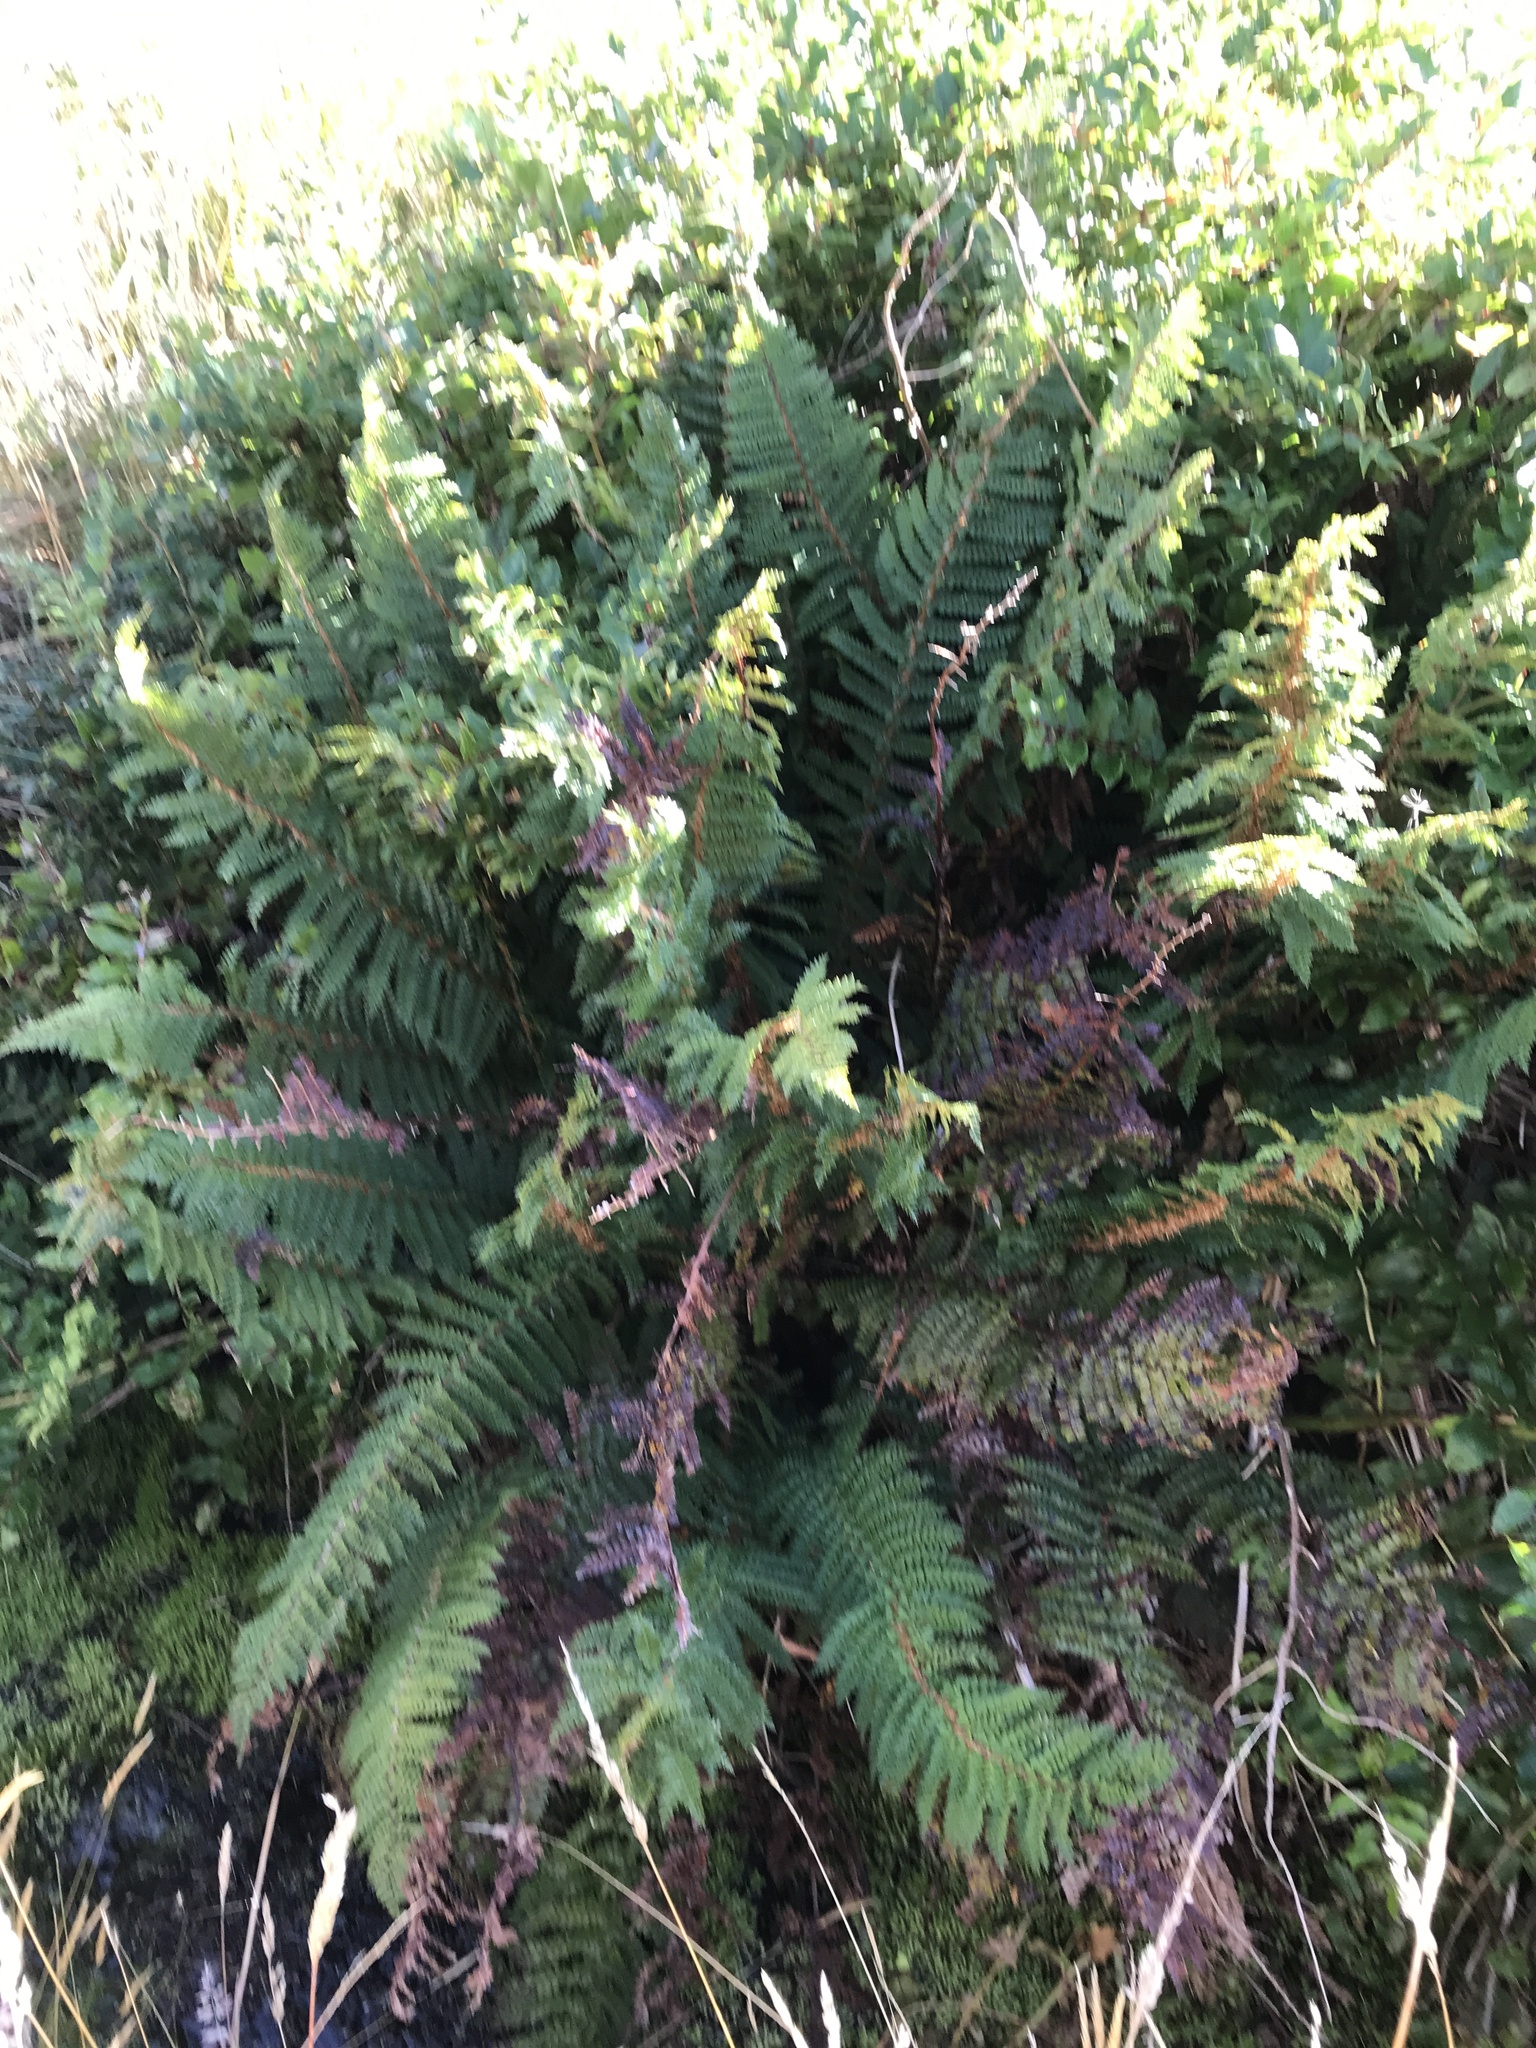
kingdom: Plantae
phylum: Tracheophyta
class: Polypodiopsida
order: Polypodiales
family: Dryopteridaceae
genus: Polystichum
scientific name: Polystichum vestitum
